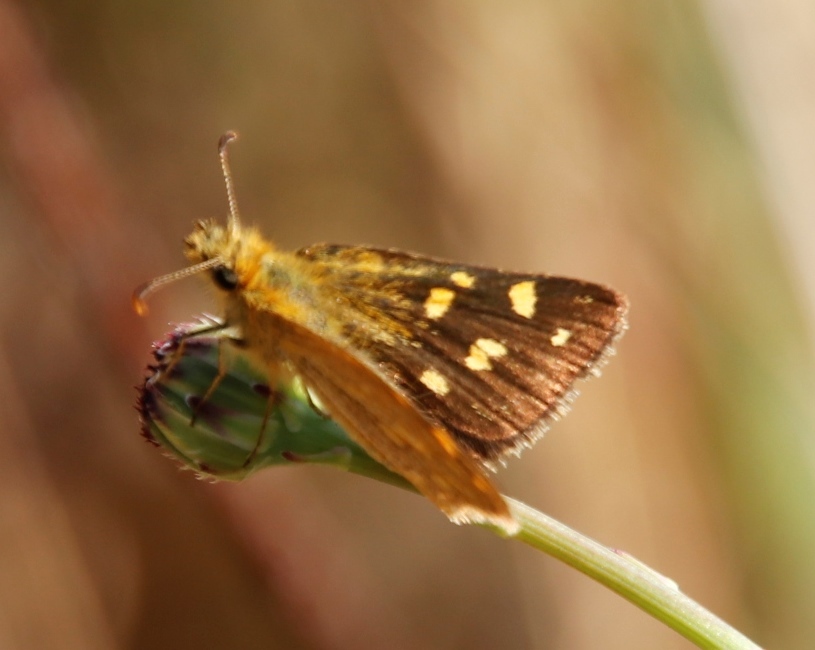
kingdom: Animalia
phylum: Arthropoda
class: Insecta
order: Lepidoptera
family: Hesperiidae
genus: Metisella
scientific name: Metisella malgacha
